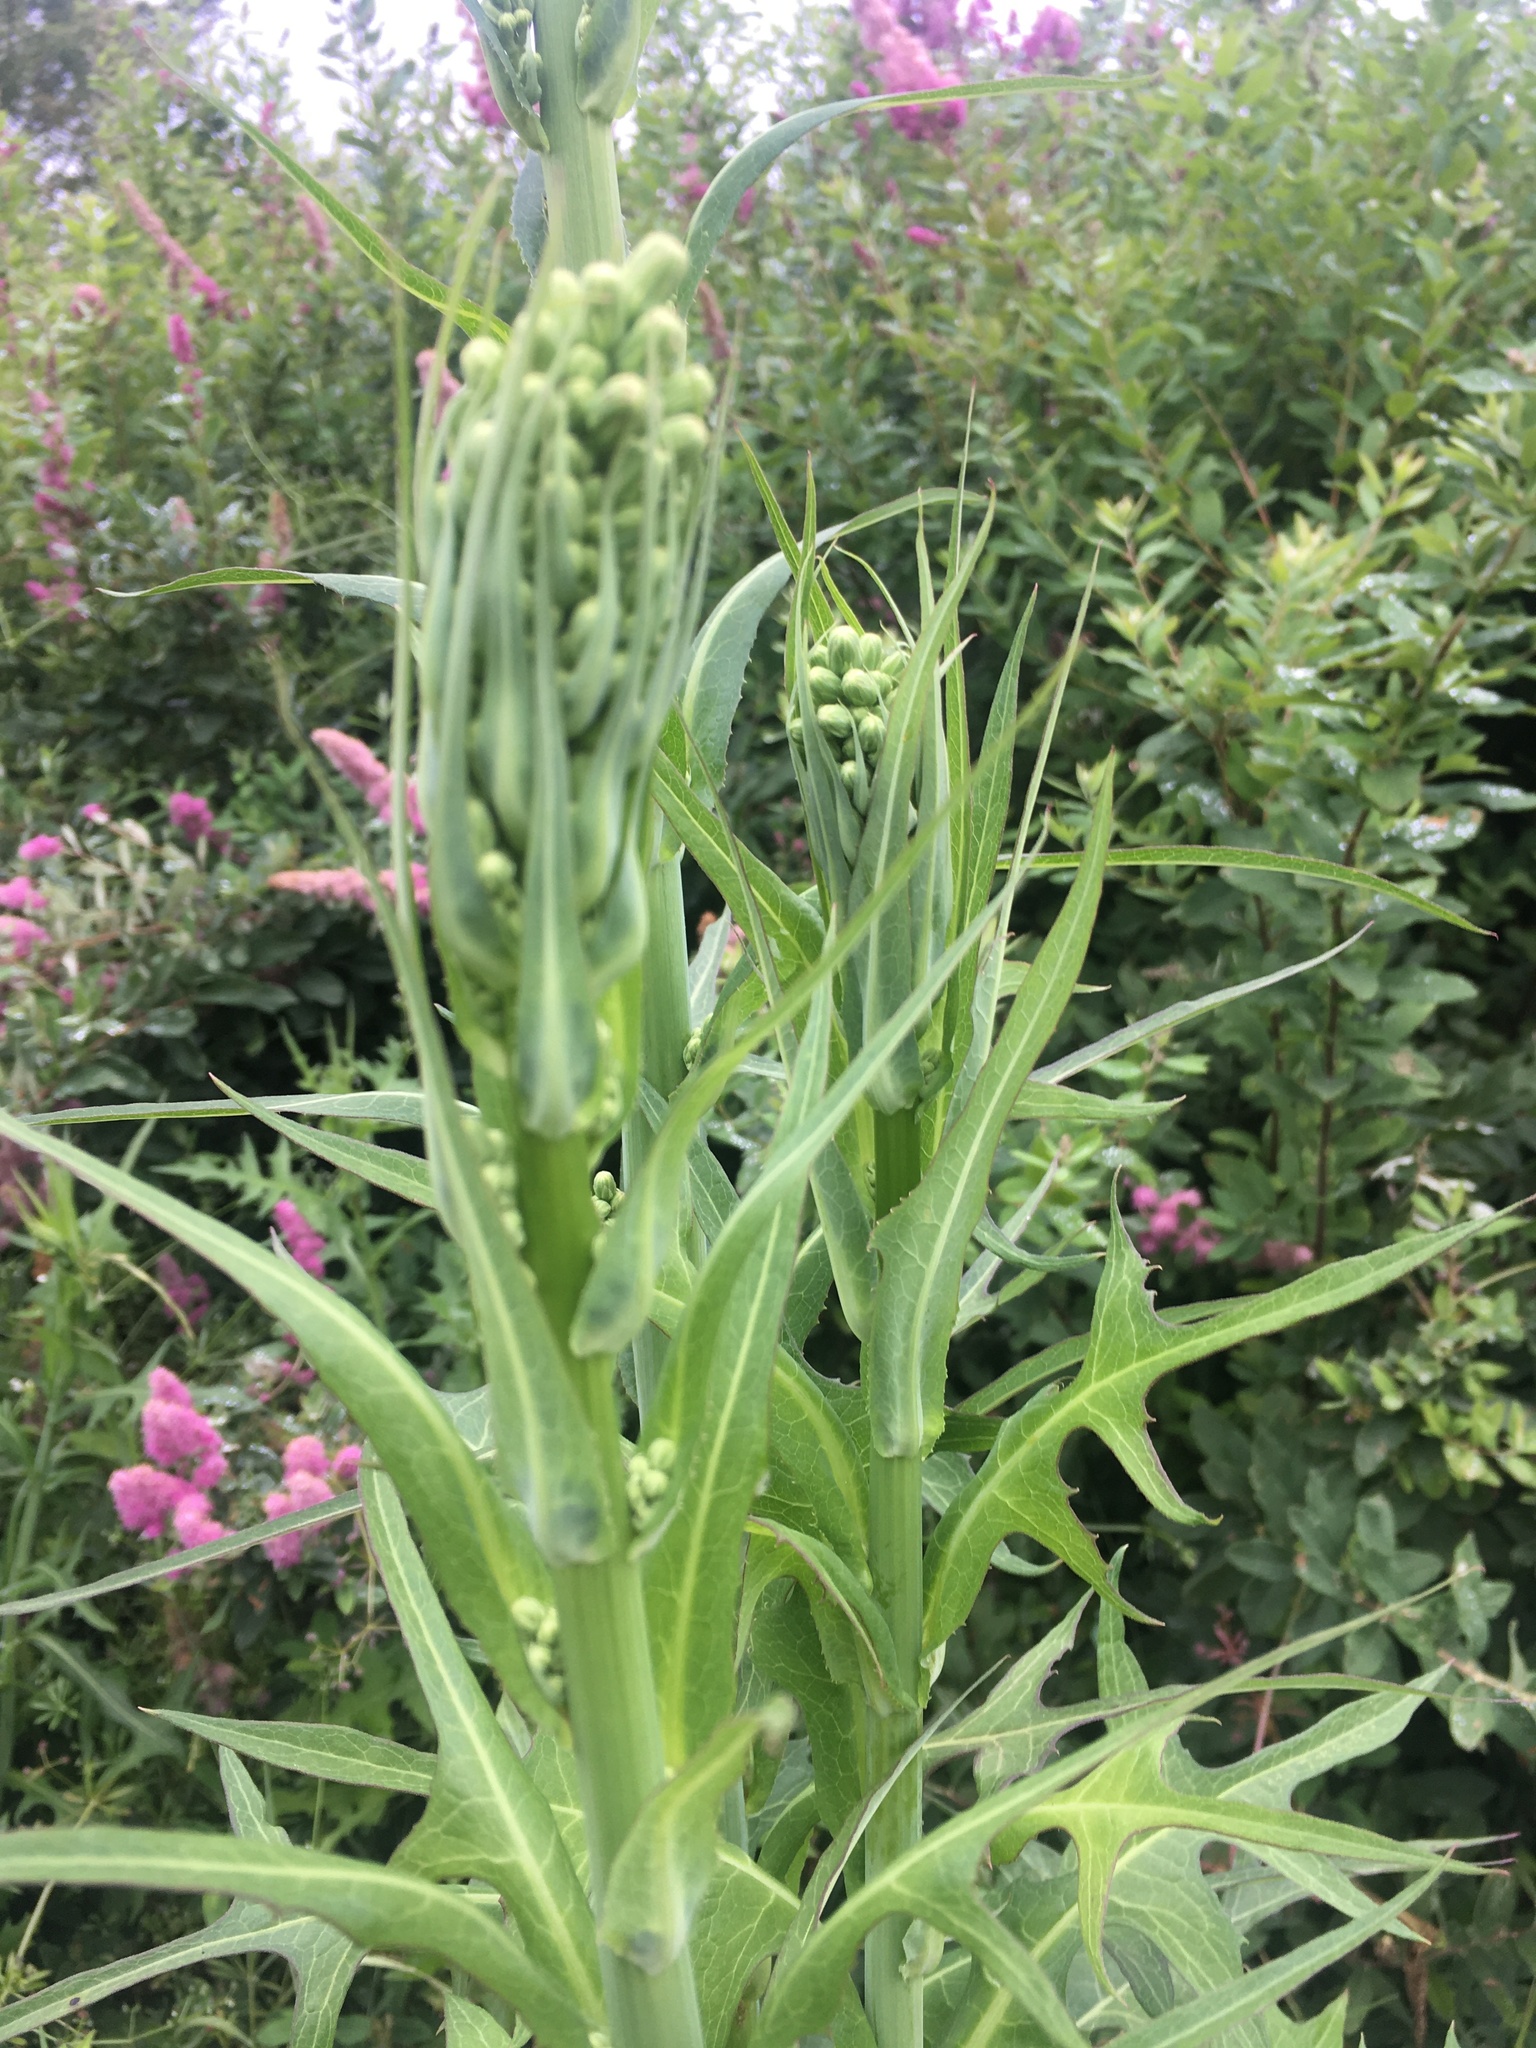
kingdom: Plantae
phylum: Tracheophyta
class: Magnoliopsida
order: Asterales
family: Asteraceae
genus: Lactuca
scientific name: Lactuca biennis
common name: Blue wood lettuce
